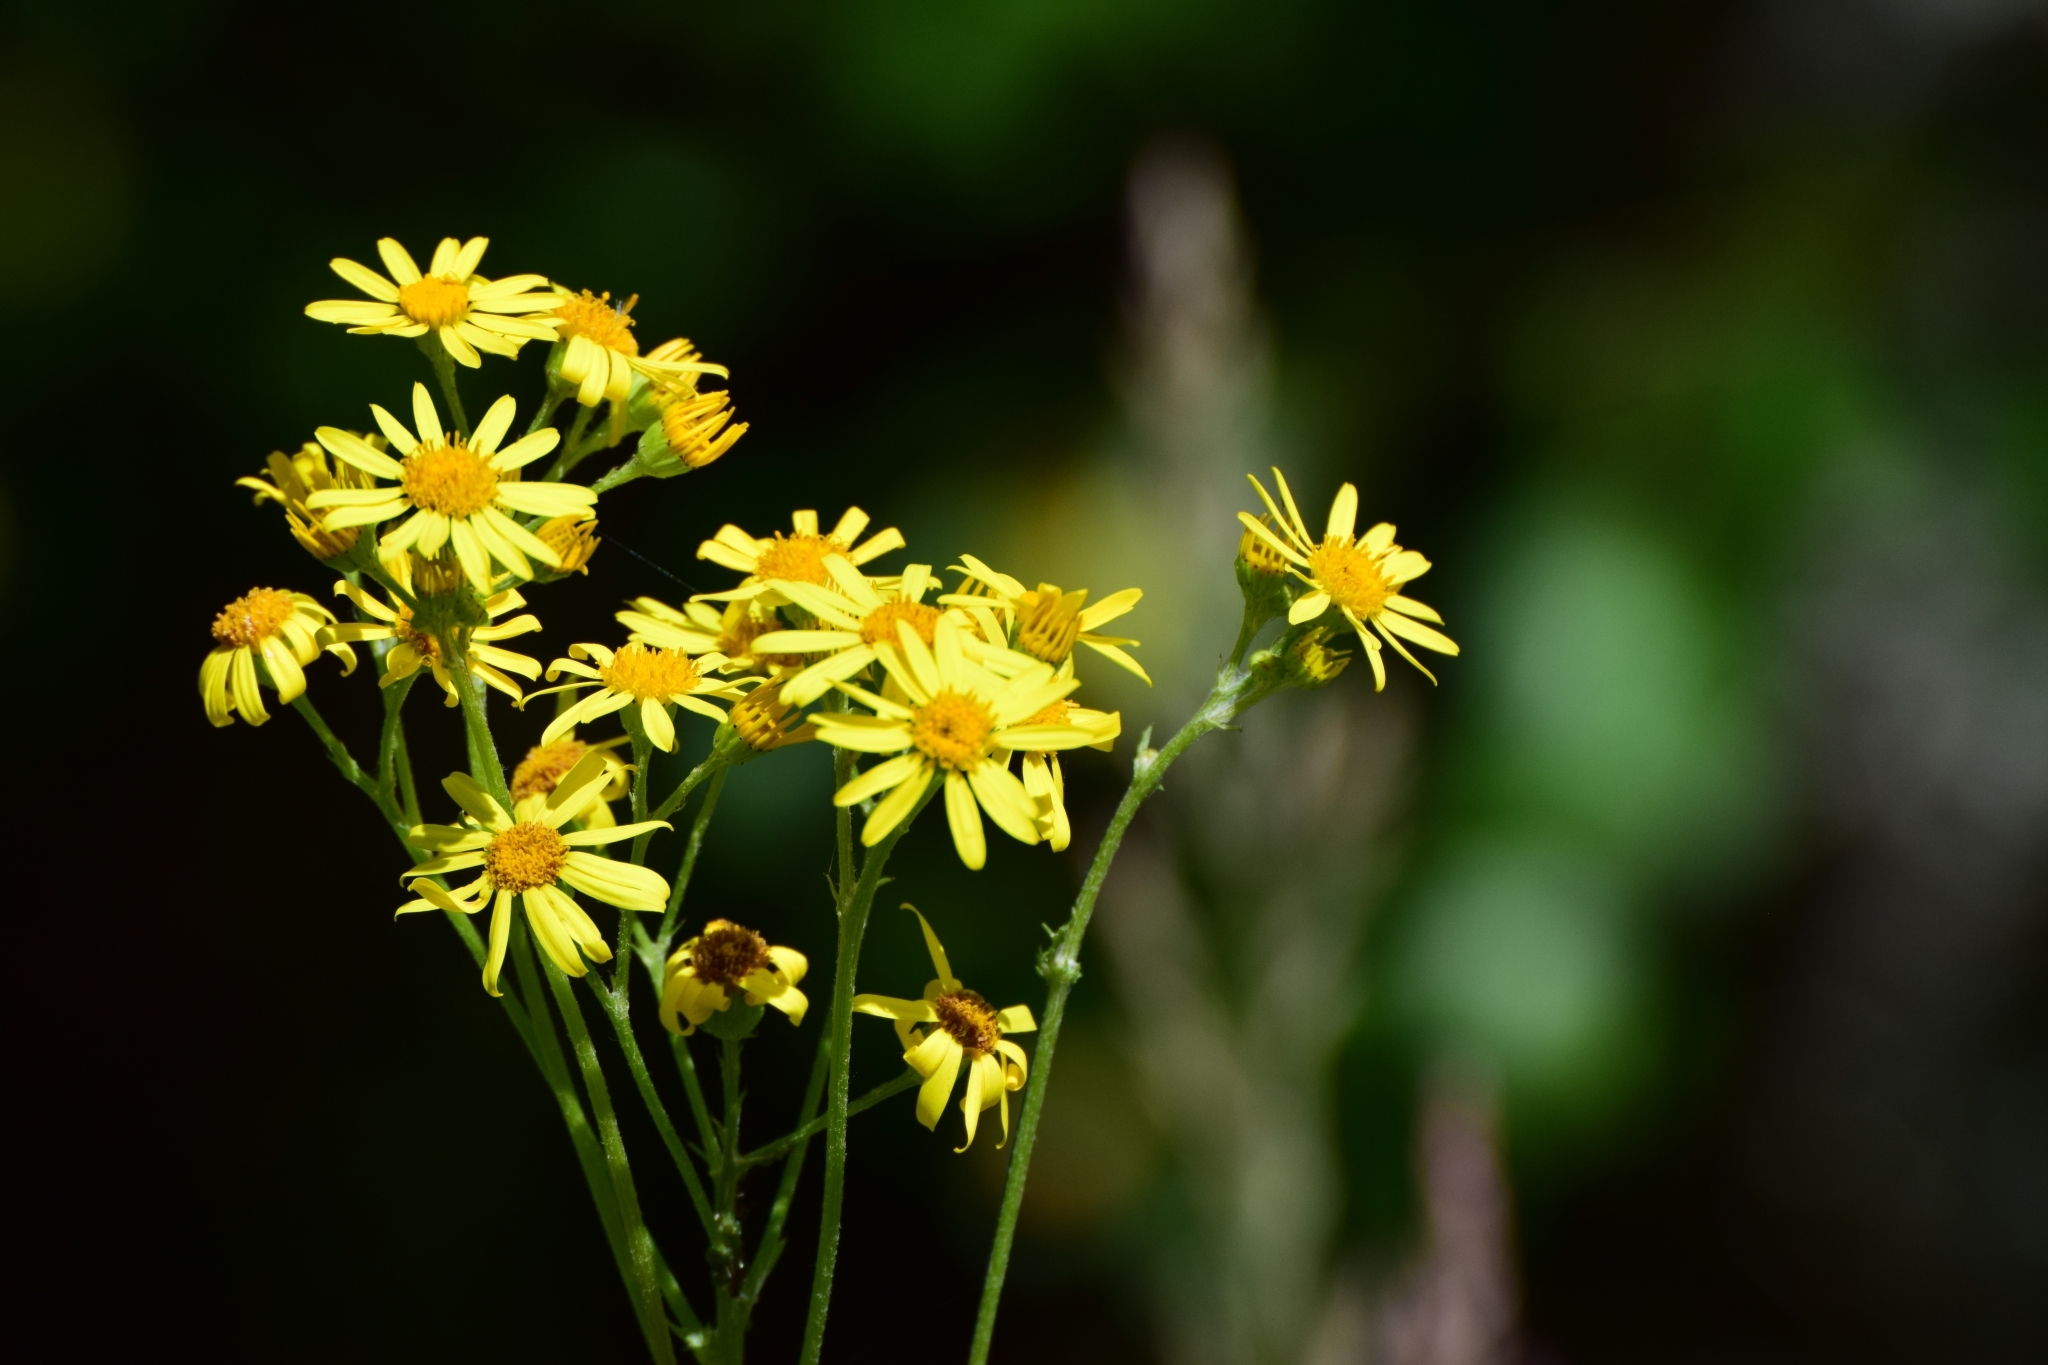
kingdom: Plantae
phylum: Tracheophyta
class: Magnoliopsida
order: Asterales
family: Asteraceae
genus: Jacobaea
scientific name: Jacobaea vulgaris
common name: Stinking willie
